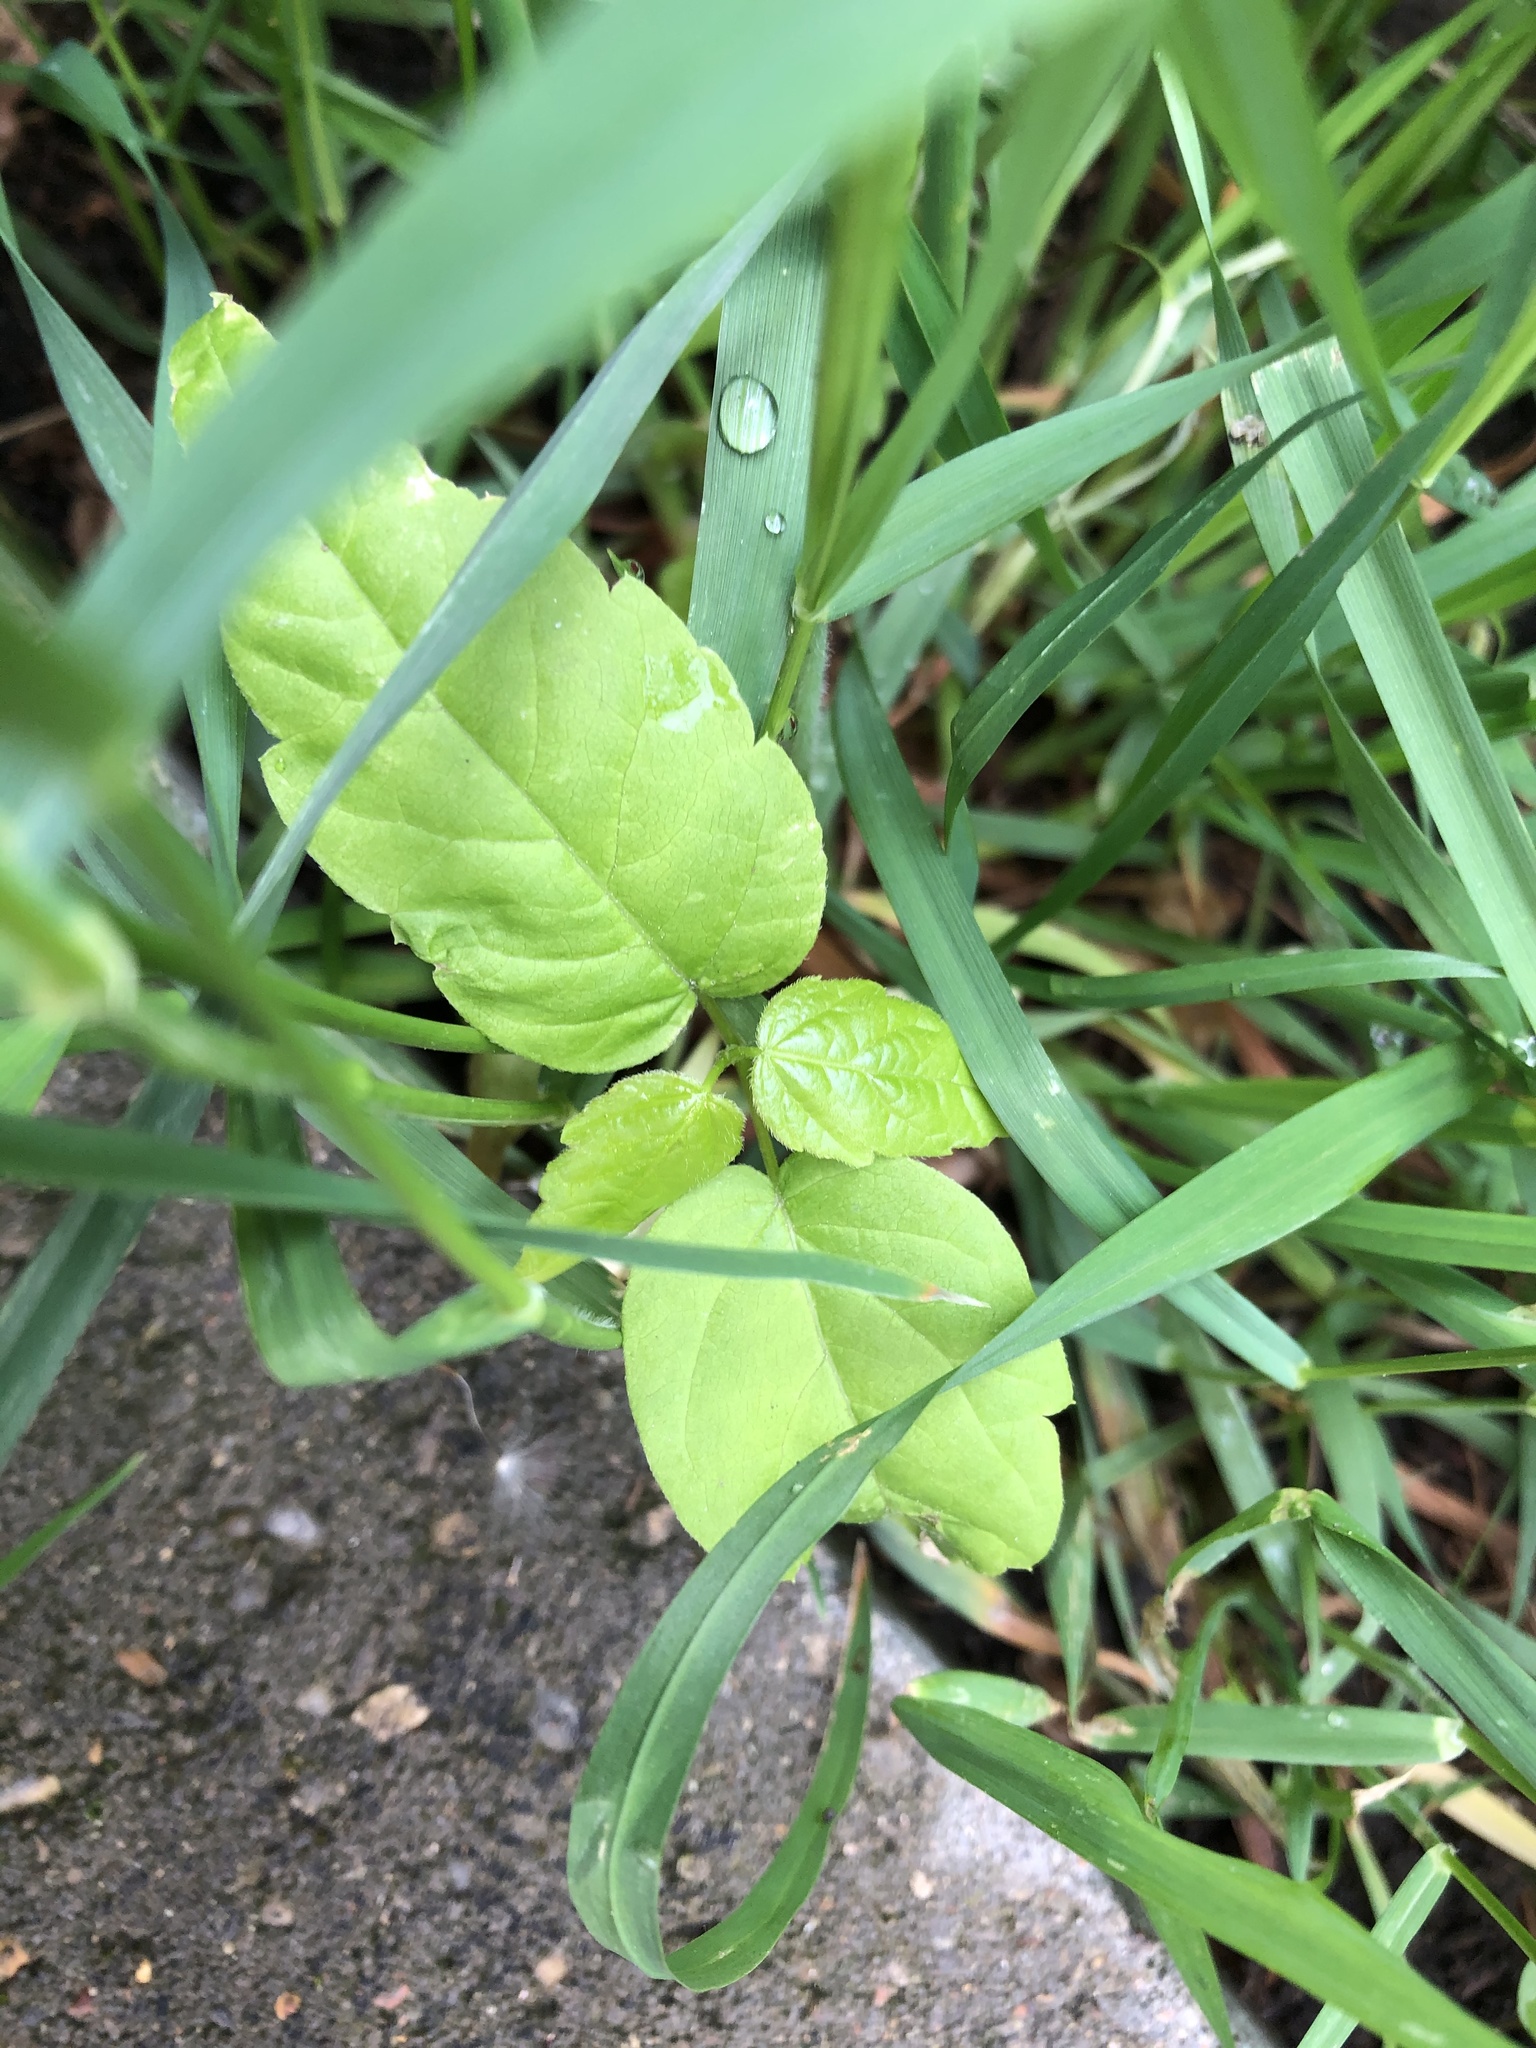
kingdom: Plantae
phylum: Tracheophyta
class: Magnoliopsida
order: Sapindales
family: Sapindaceae
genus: Acer
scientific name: Acer negundo
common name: Ashleaf maple
